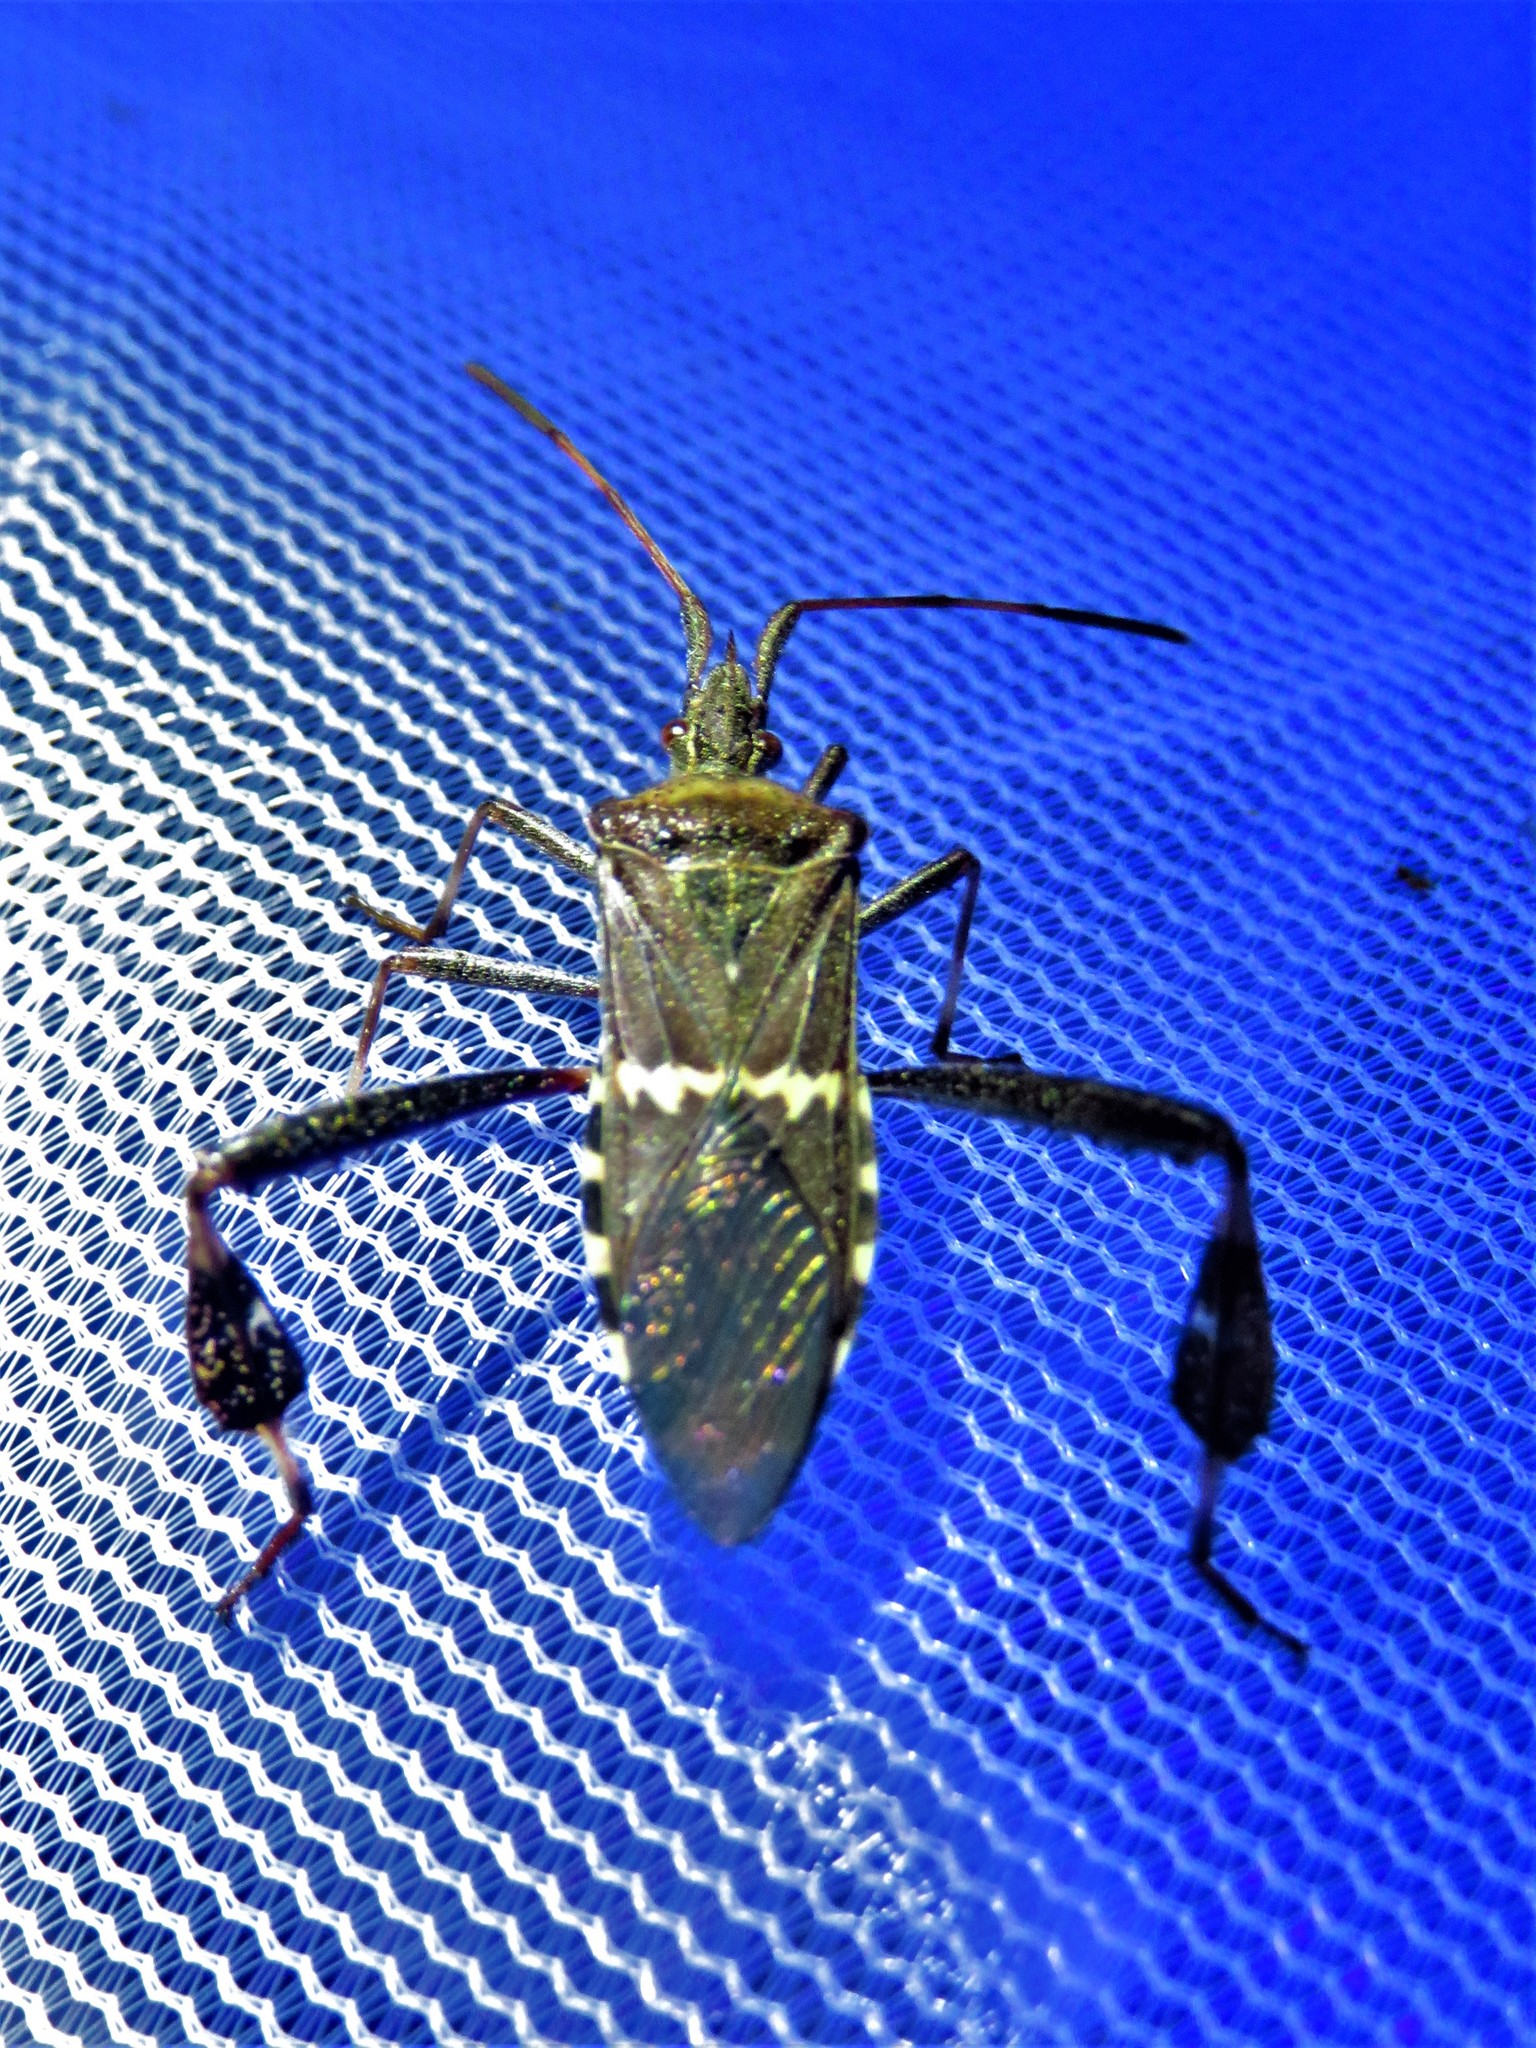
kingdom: Animalia
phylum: Arthropoda
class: Insecta
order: Hemiptera
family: Coreidae
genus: Leptoglossus
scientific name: Leptoglossus clypealis
